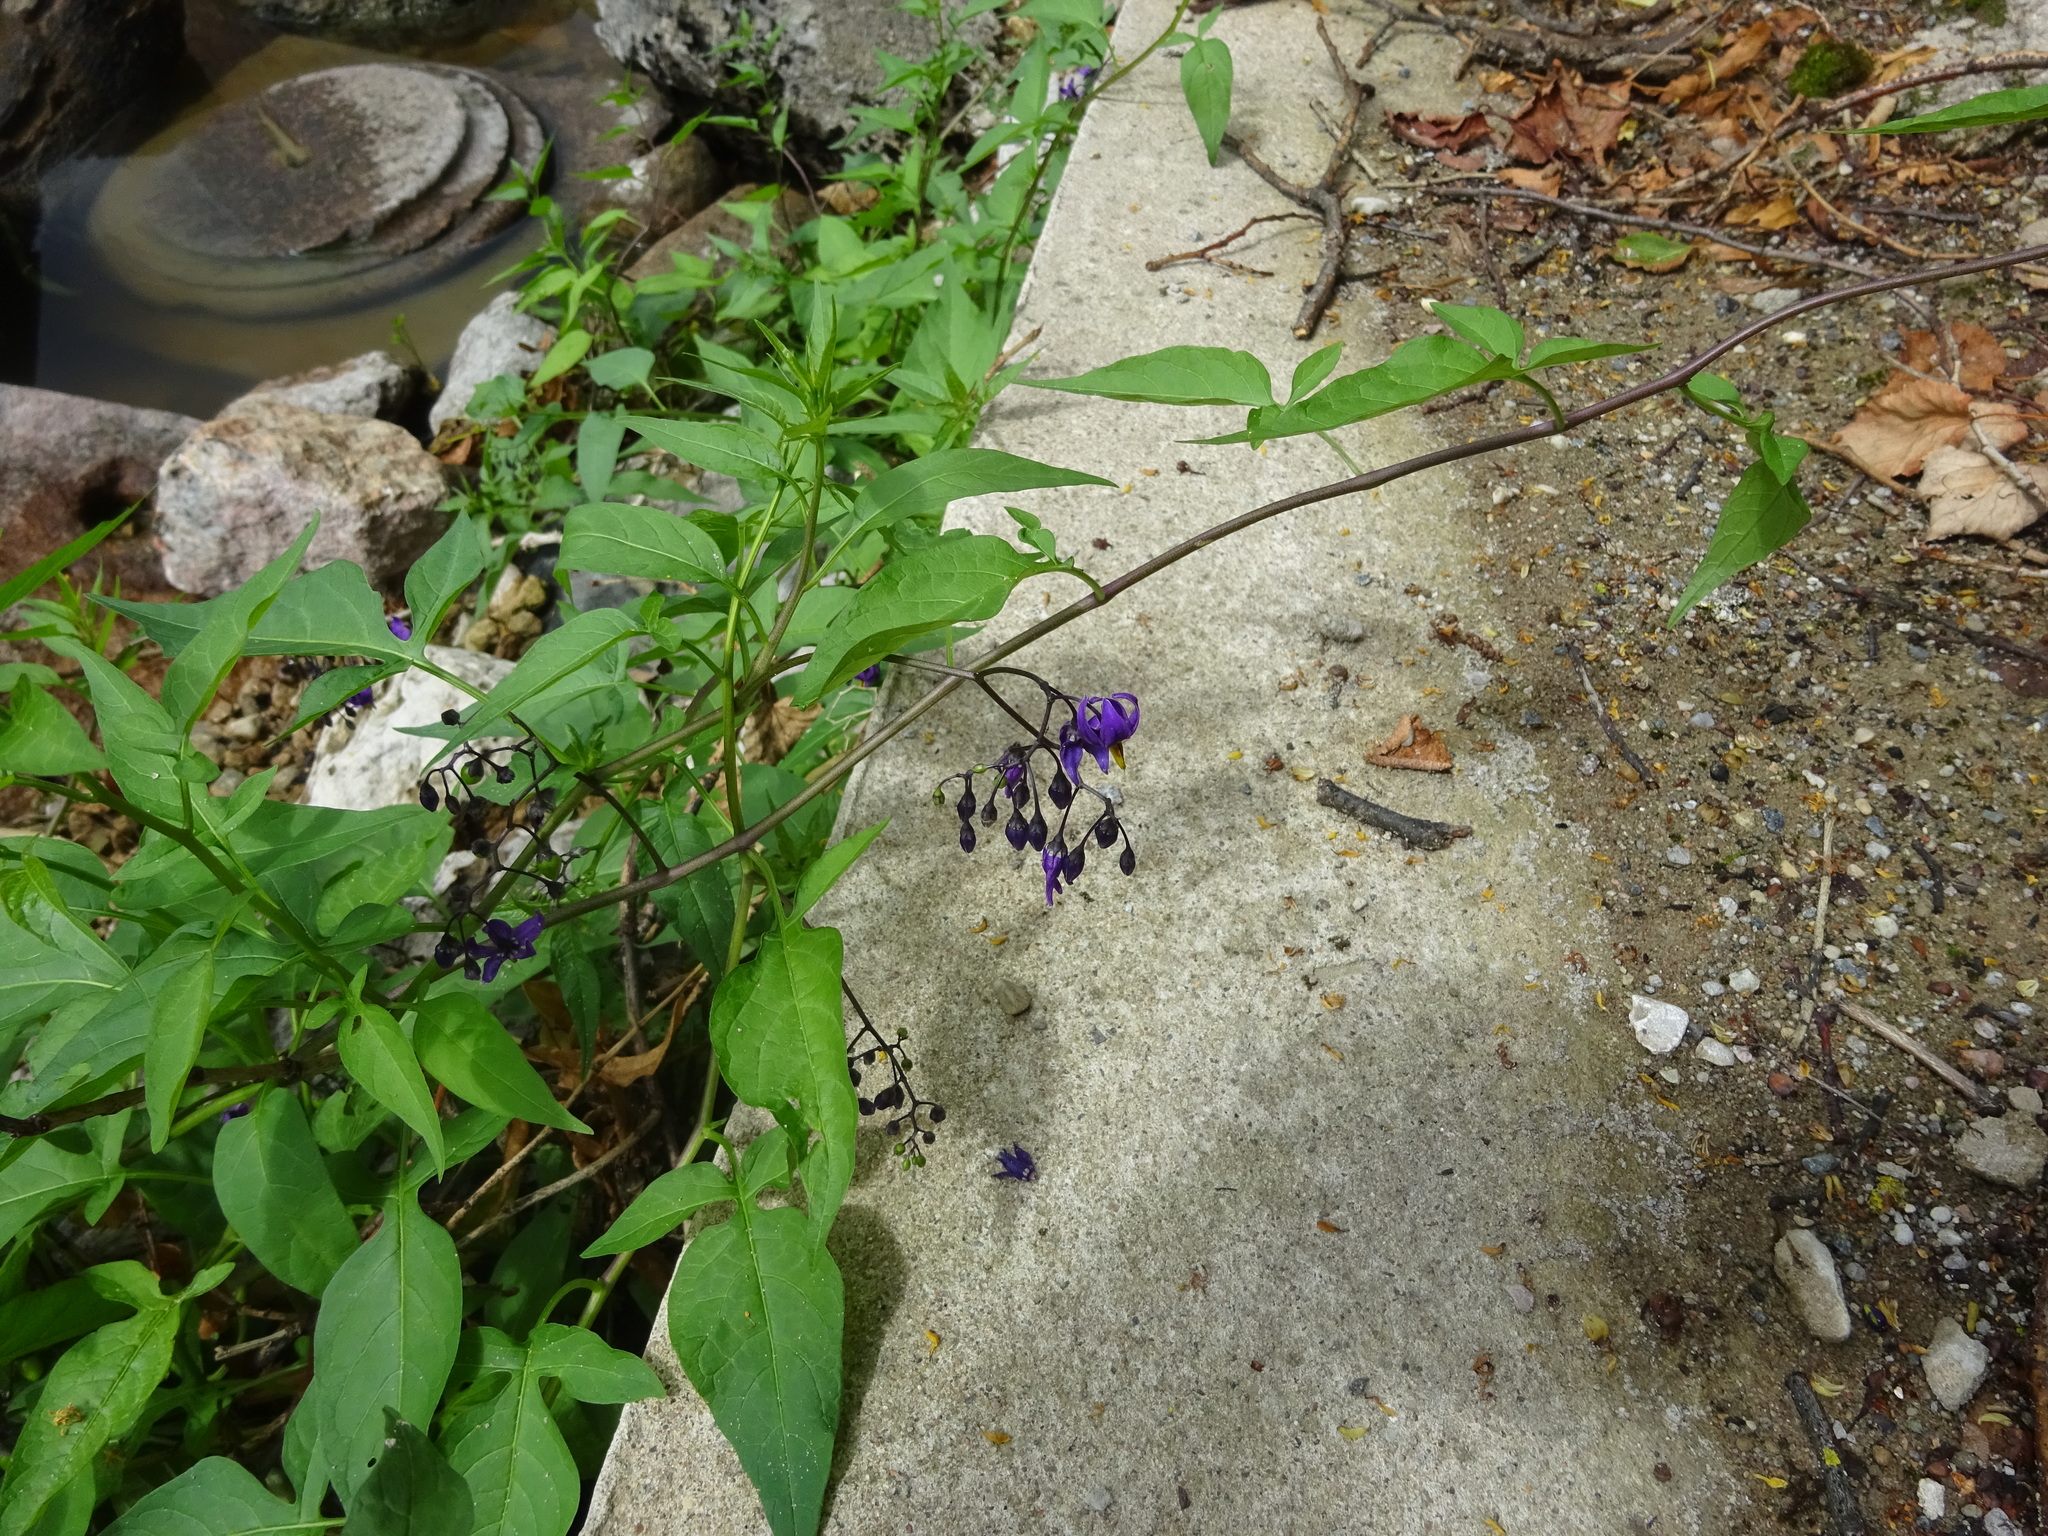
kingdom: Plantae
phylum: Tracheophyta
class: Magnoliopsida
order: Solanales
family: Solanaceae
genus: Solanum
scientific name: Solanum dulcamara
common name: Climbing nightshade
